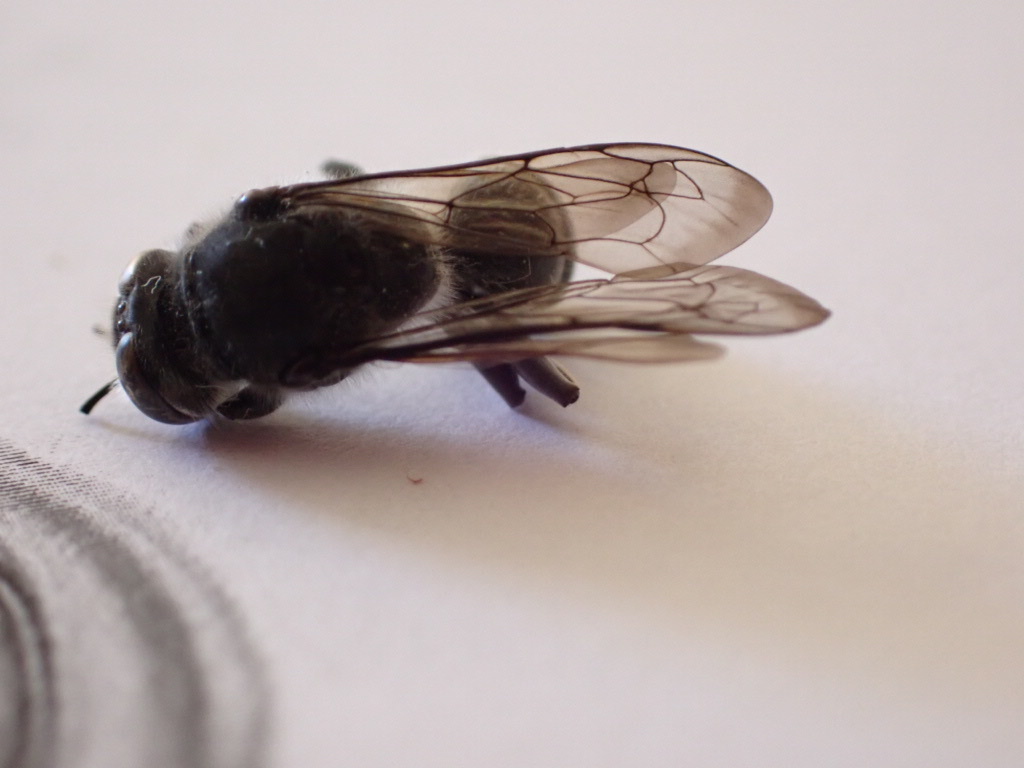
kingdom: Animalia
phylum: Arthropoda
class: Insecta
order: Hymenoptera
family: Crabronidae
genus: Pison
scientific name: Pison spinolae
